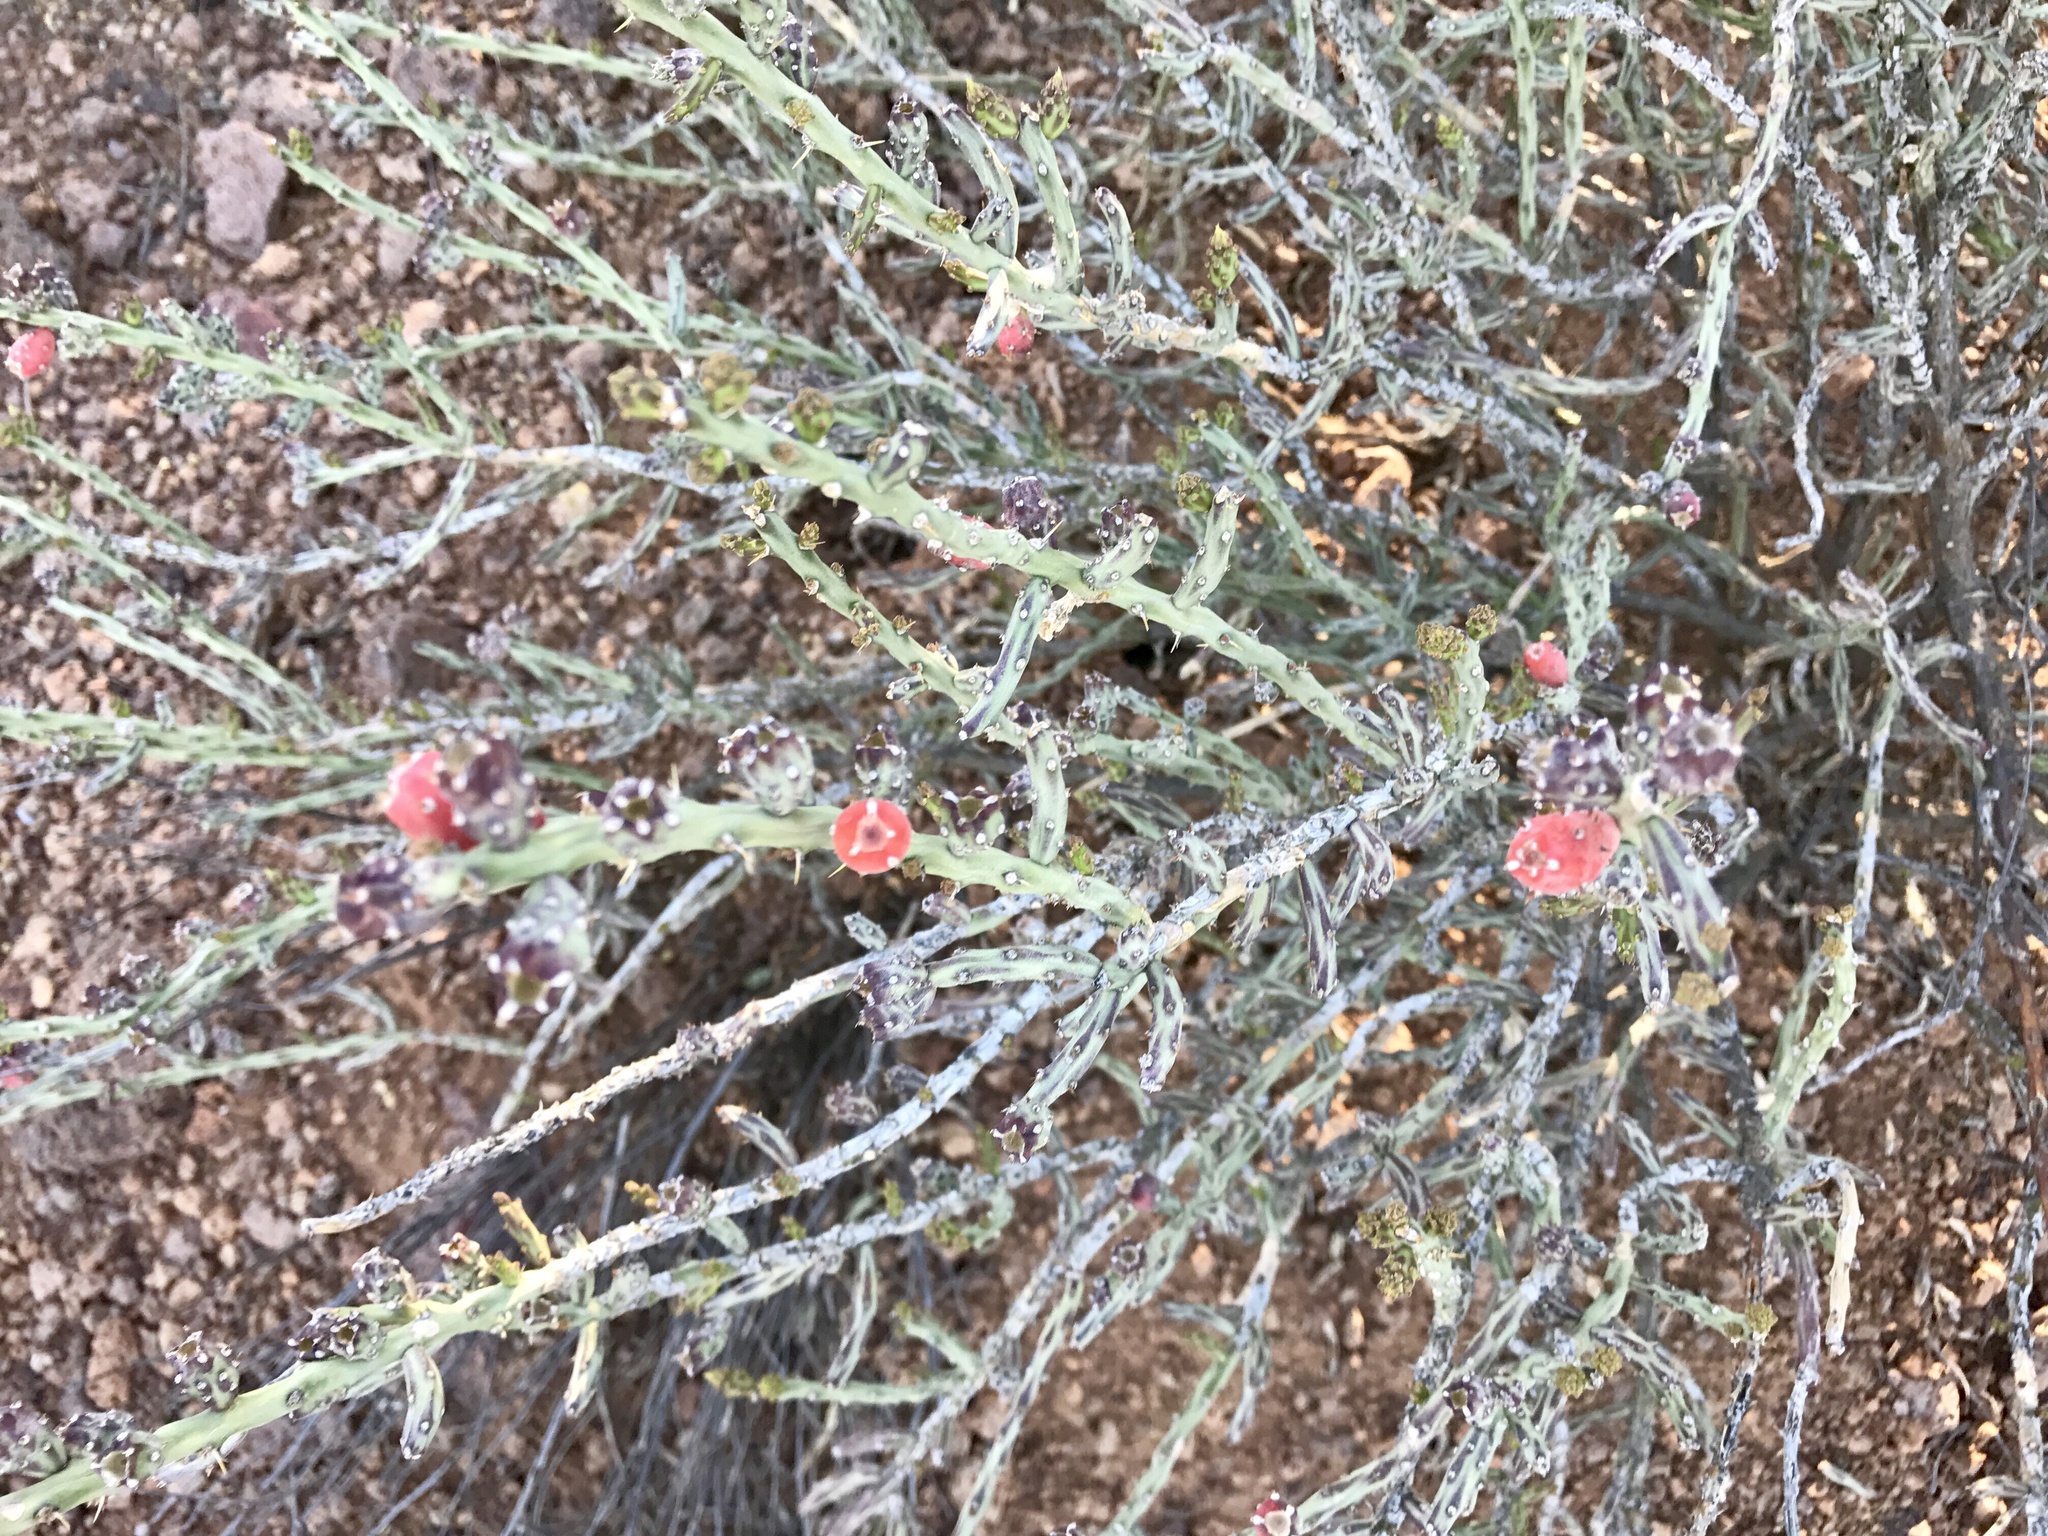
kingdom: Plantae
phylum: Tracheophyta
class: Magnoliopsida
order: Caryophyllales
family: Cactaceae
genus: Cylindropuntia
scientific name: Cylindropuntia leptocaulis
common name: Christmas cactus
